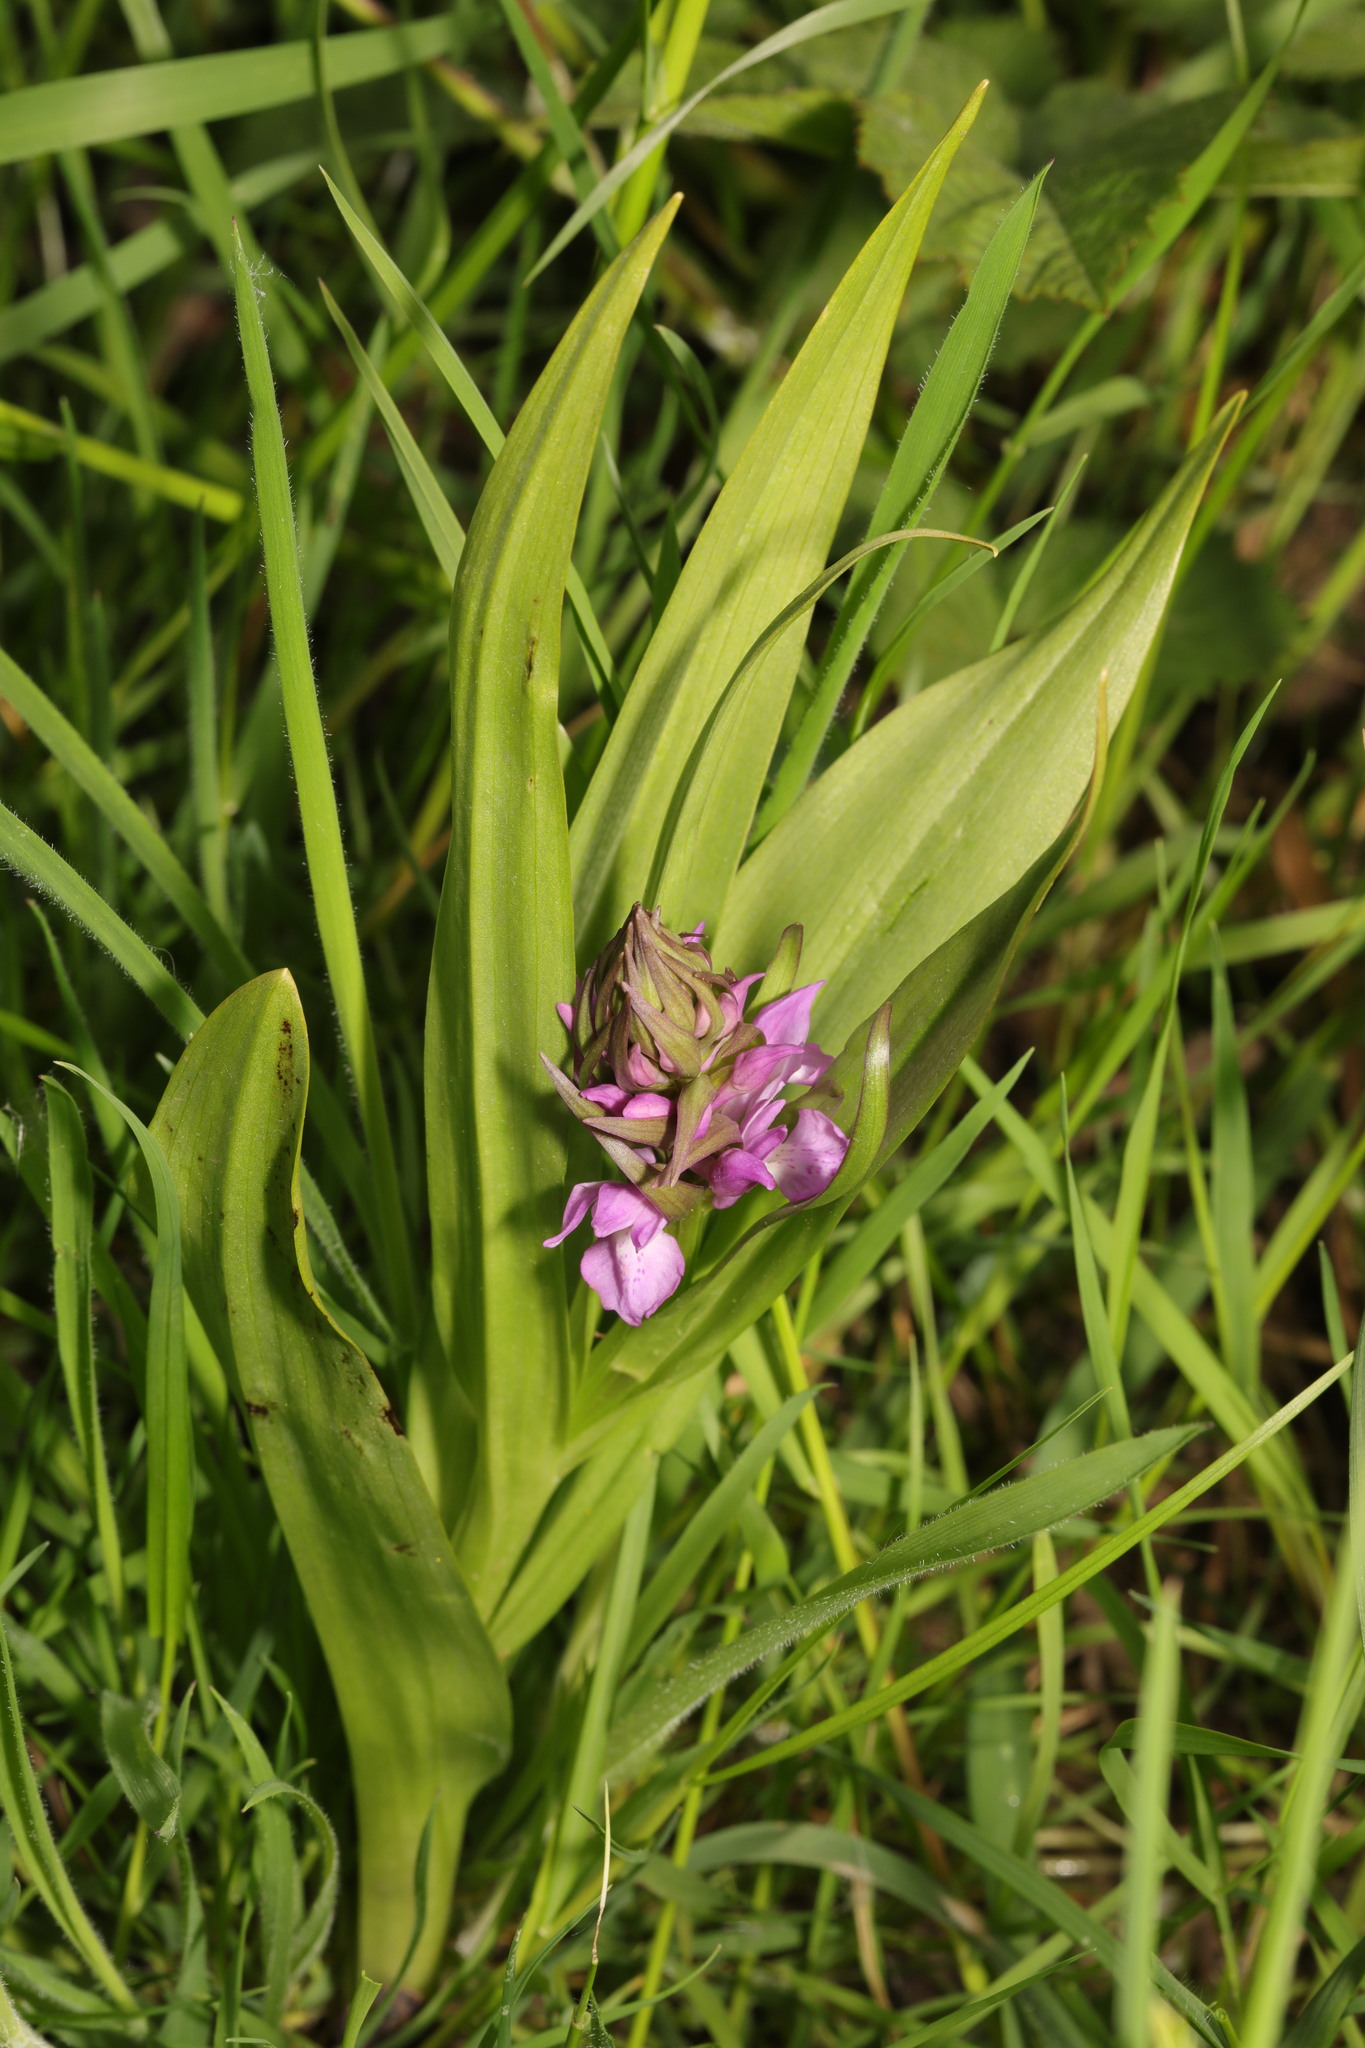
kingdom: Plantae
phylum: Tracheophyta
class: Liliopsida
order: Asparagales
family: Orchidaceae
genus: Dactylorhiza
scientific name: Dactylorhiza majalis
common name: Marsh orchid
